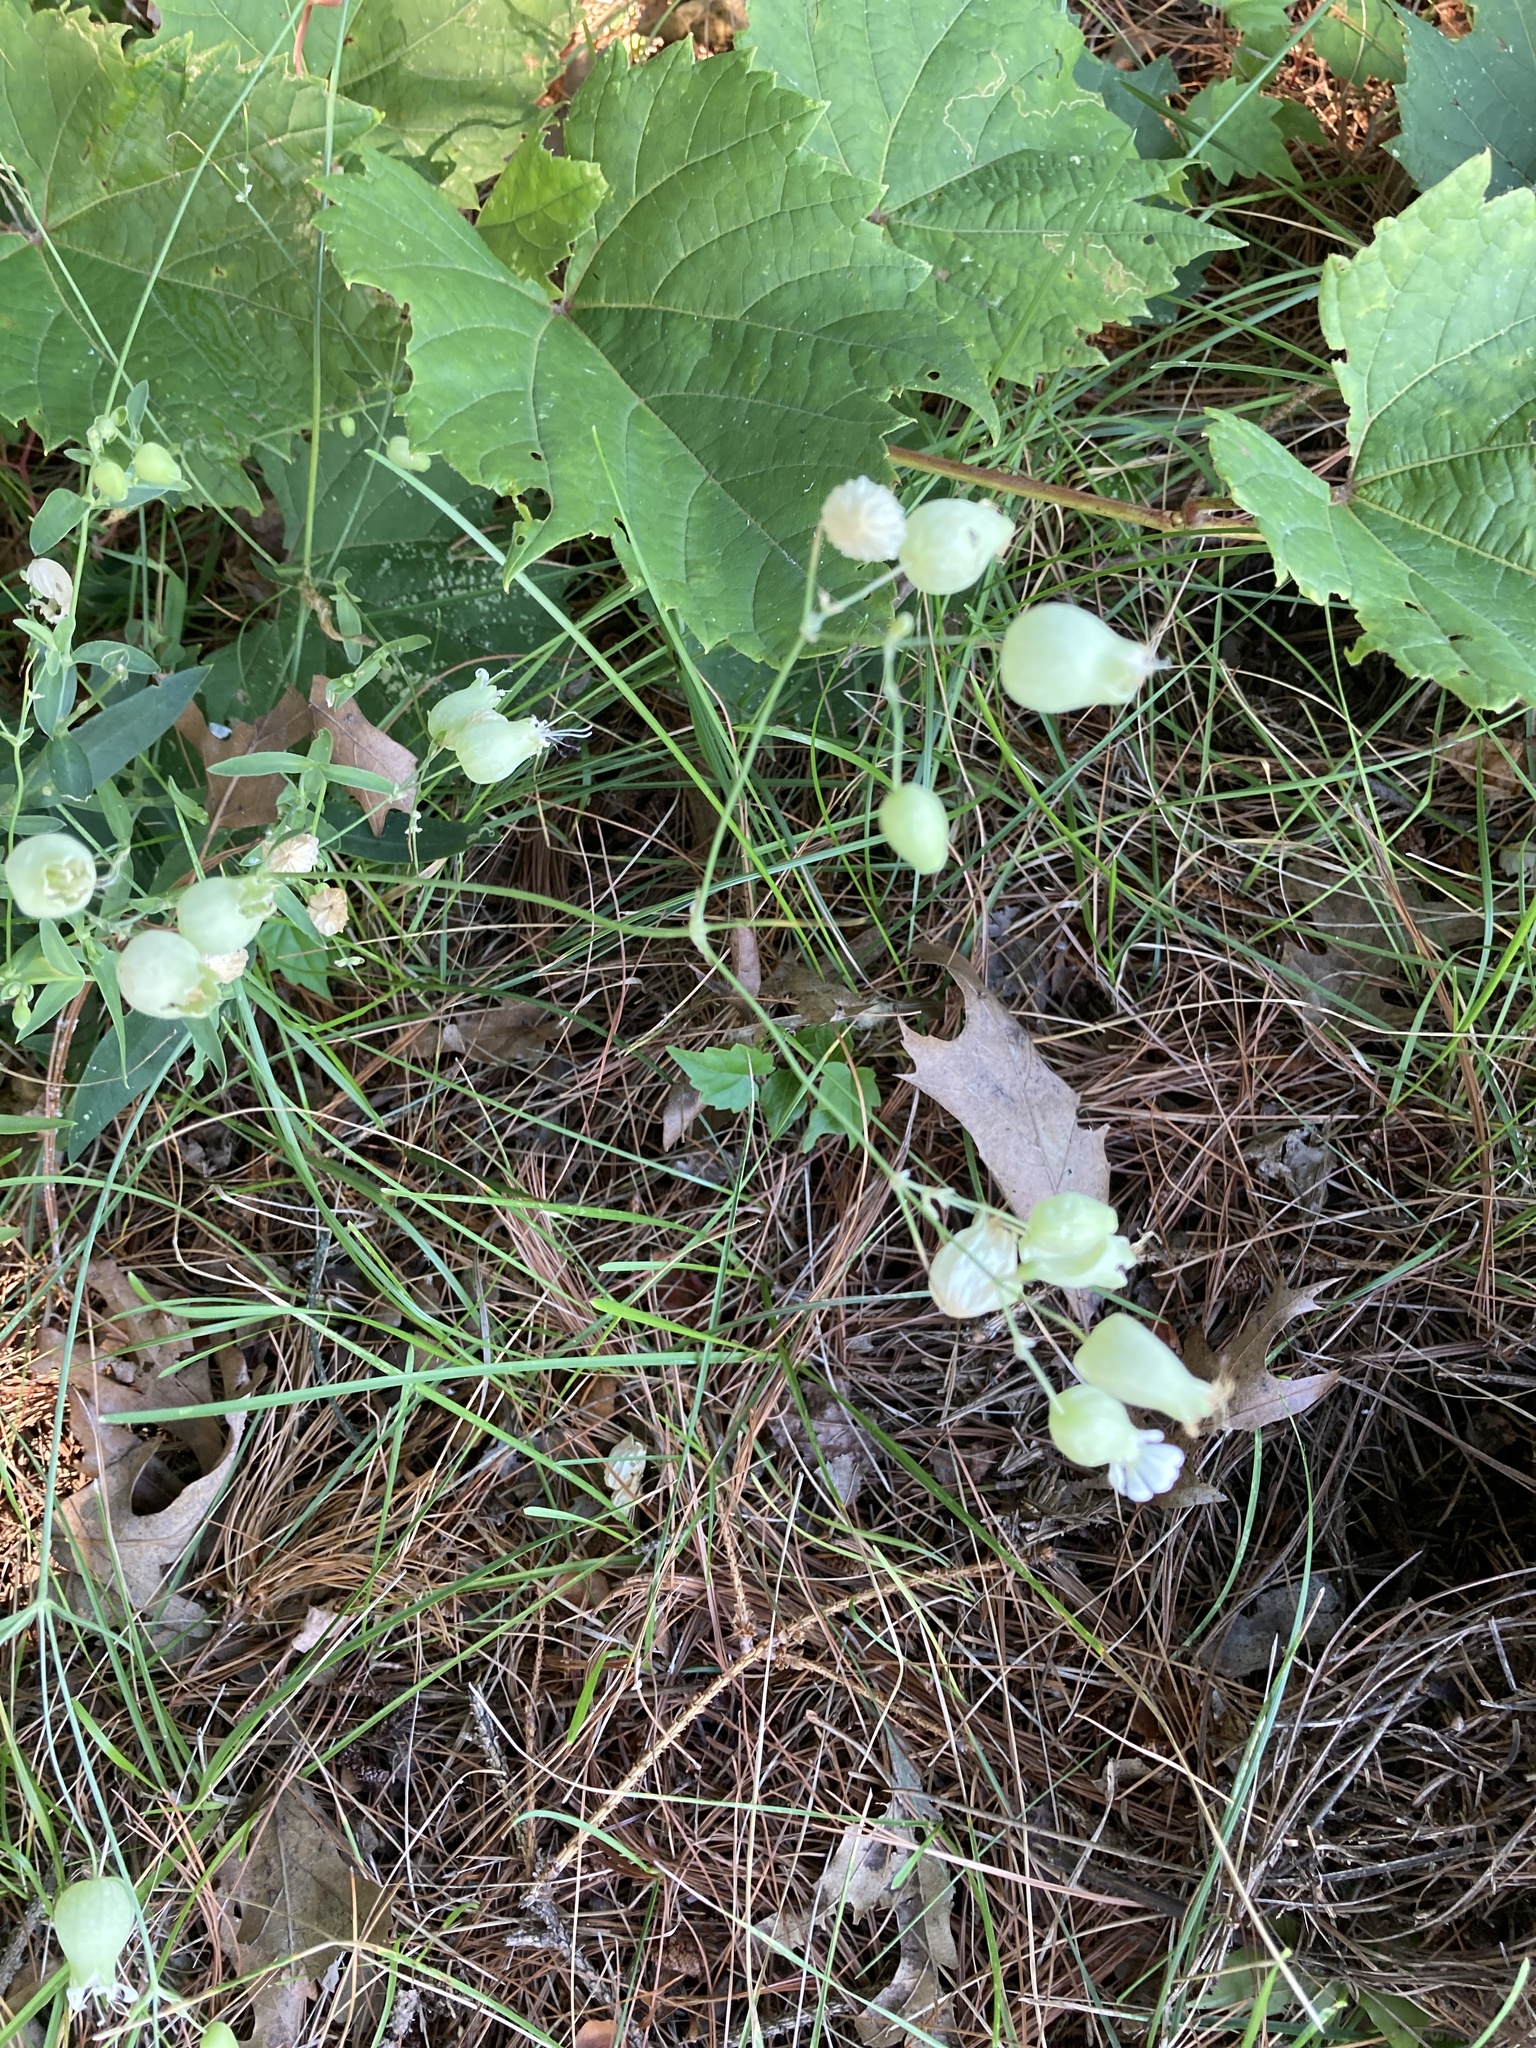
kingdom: Plantae
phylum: Tracheophyta
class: Magnoliopsida
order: Caryophyllales
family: Caryophyllaceae
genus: Silene
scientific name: Silene vulgaris
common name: Bladder campion
